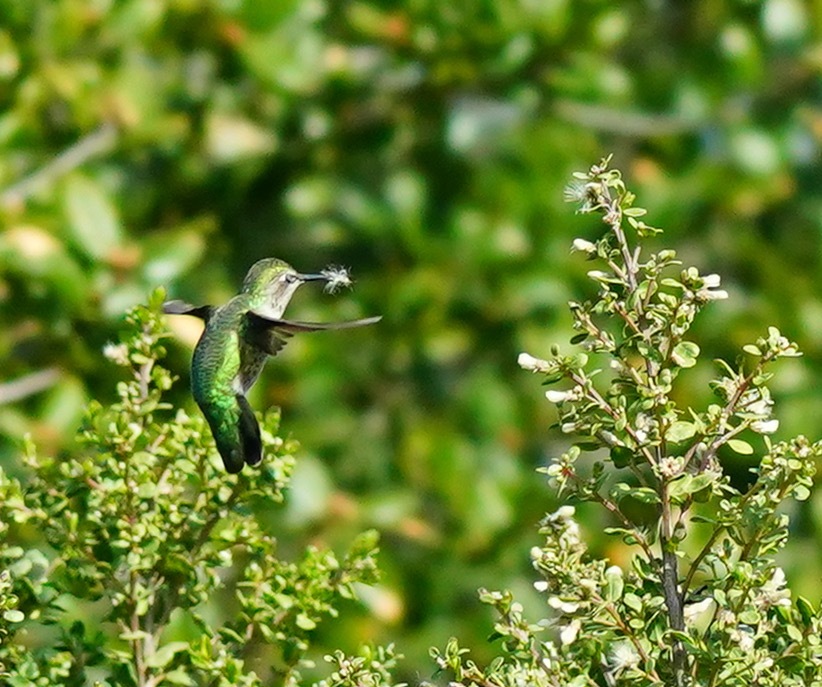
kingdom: Animalia
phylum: Chordata
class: Aves
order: Apodiformes
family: Trochilidae
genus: Calypte
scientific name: Calypte anna
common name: Anna's hummingbird
